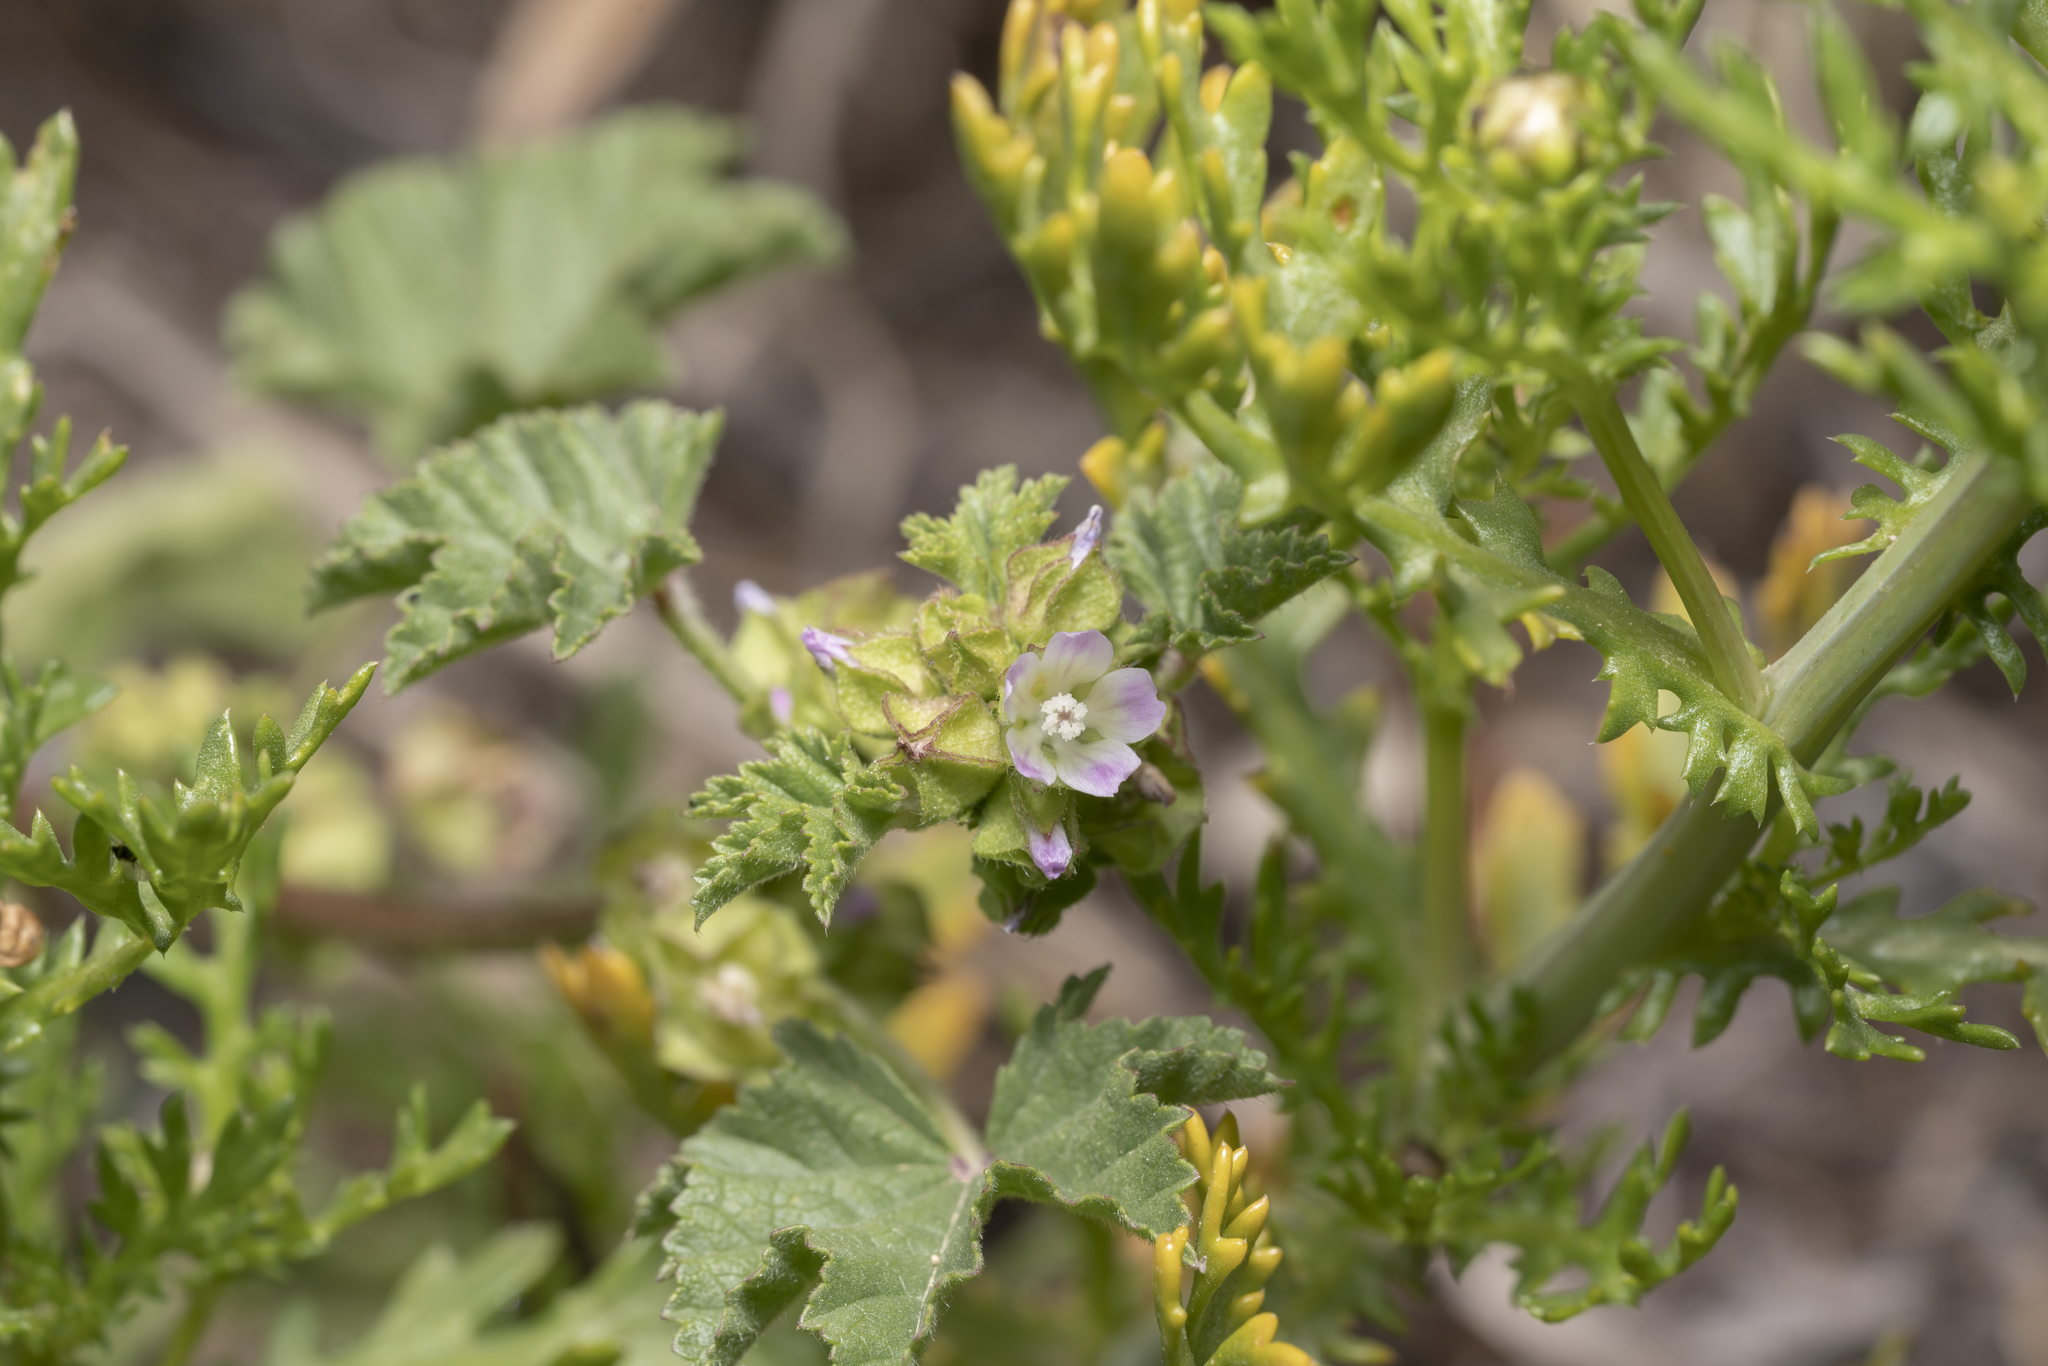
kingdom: Plantae
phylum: Tracheophyta
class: Magnoliopsida
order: Malvales
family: Malvaceae
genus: Malva
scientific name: Malva parviflora
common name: Least mallow
